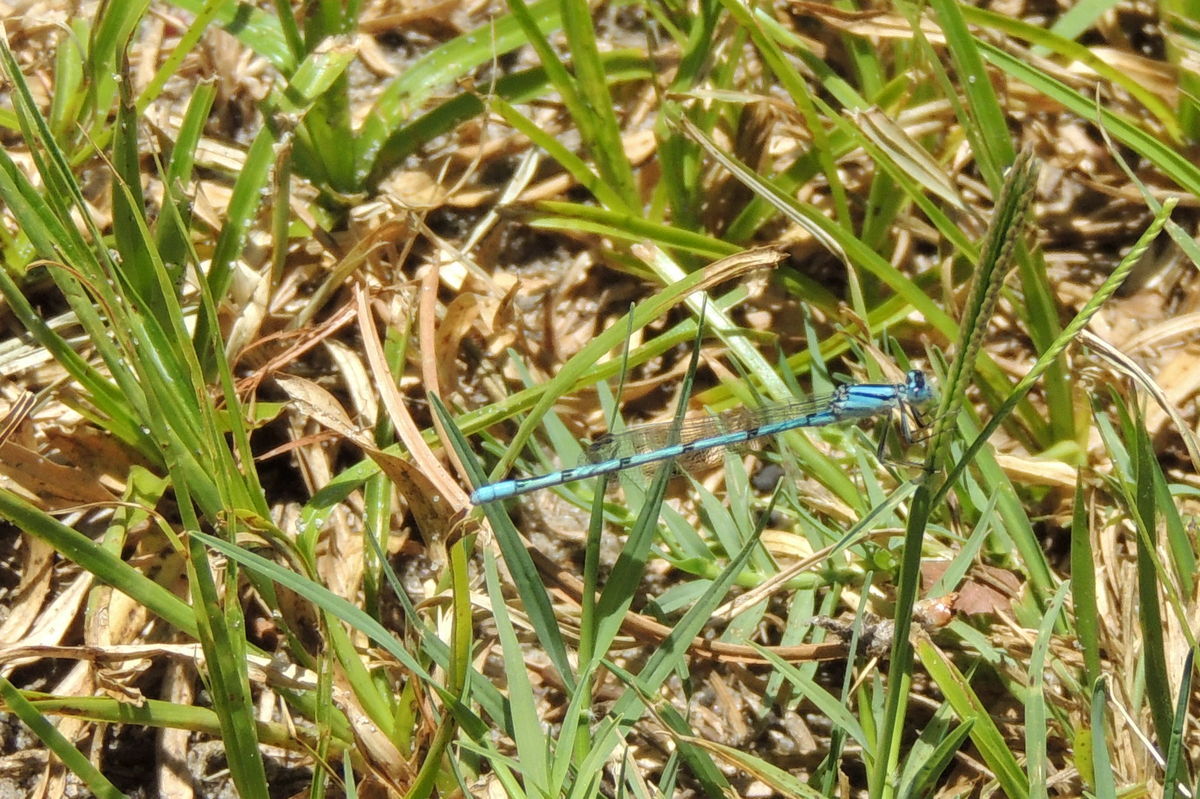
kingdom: Animalia
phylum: Arthropoda
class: Insecta
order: Odonata
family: Coenagrionidae
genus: Enallagma
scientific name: Enallagma doubledayi
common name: Atlantic bluet
